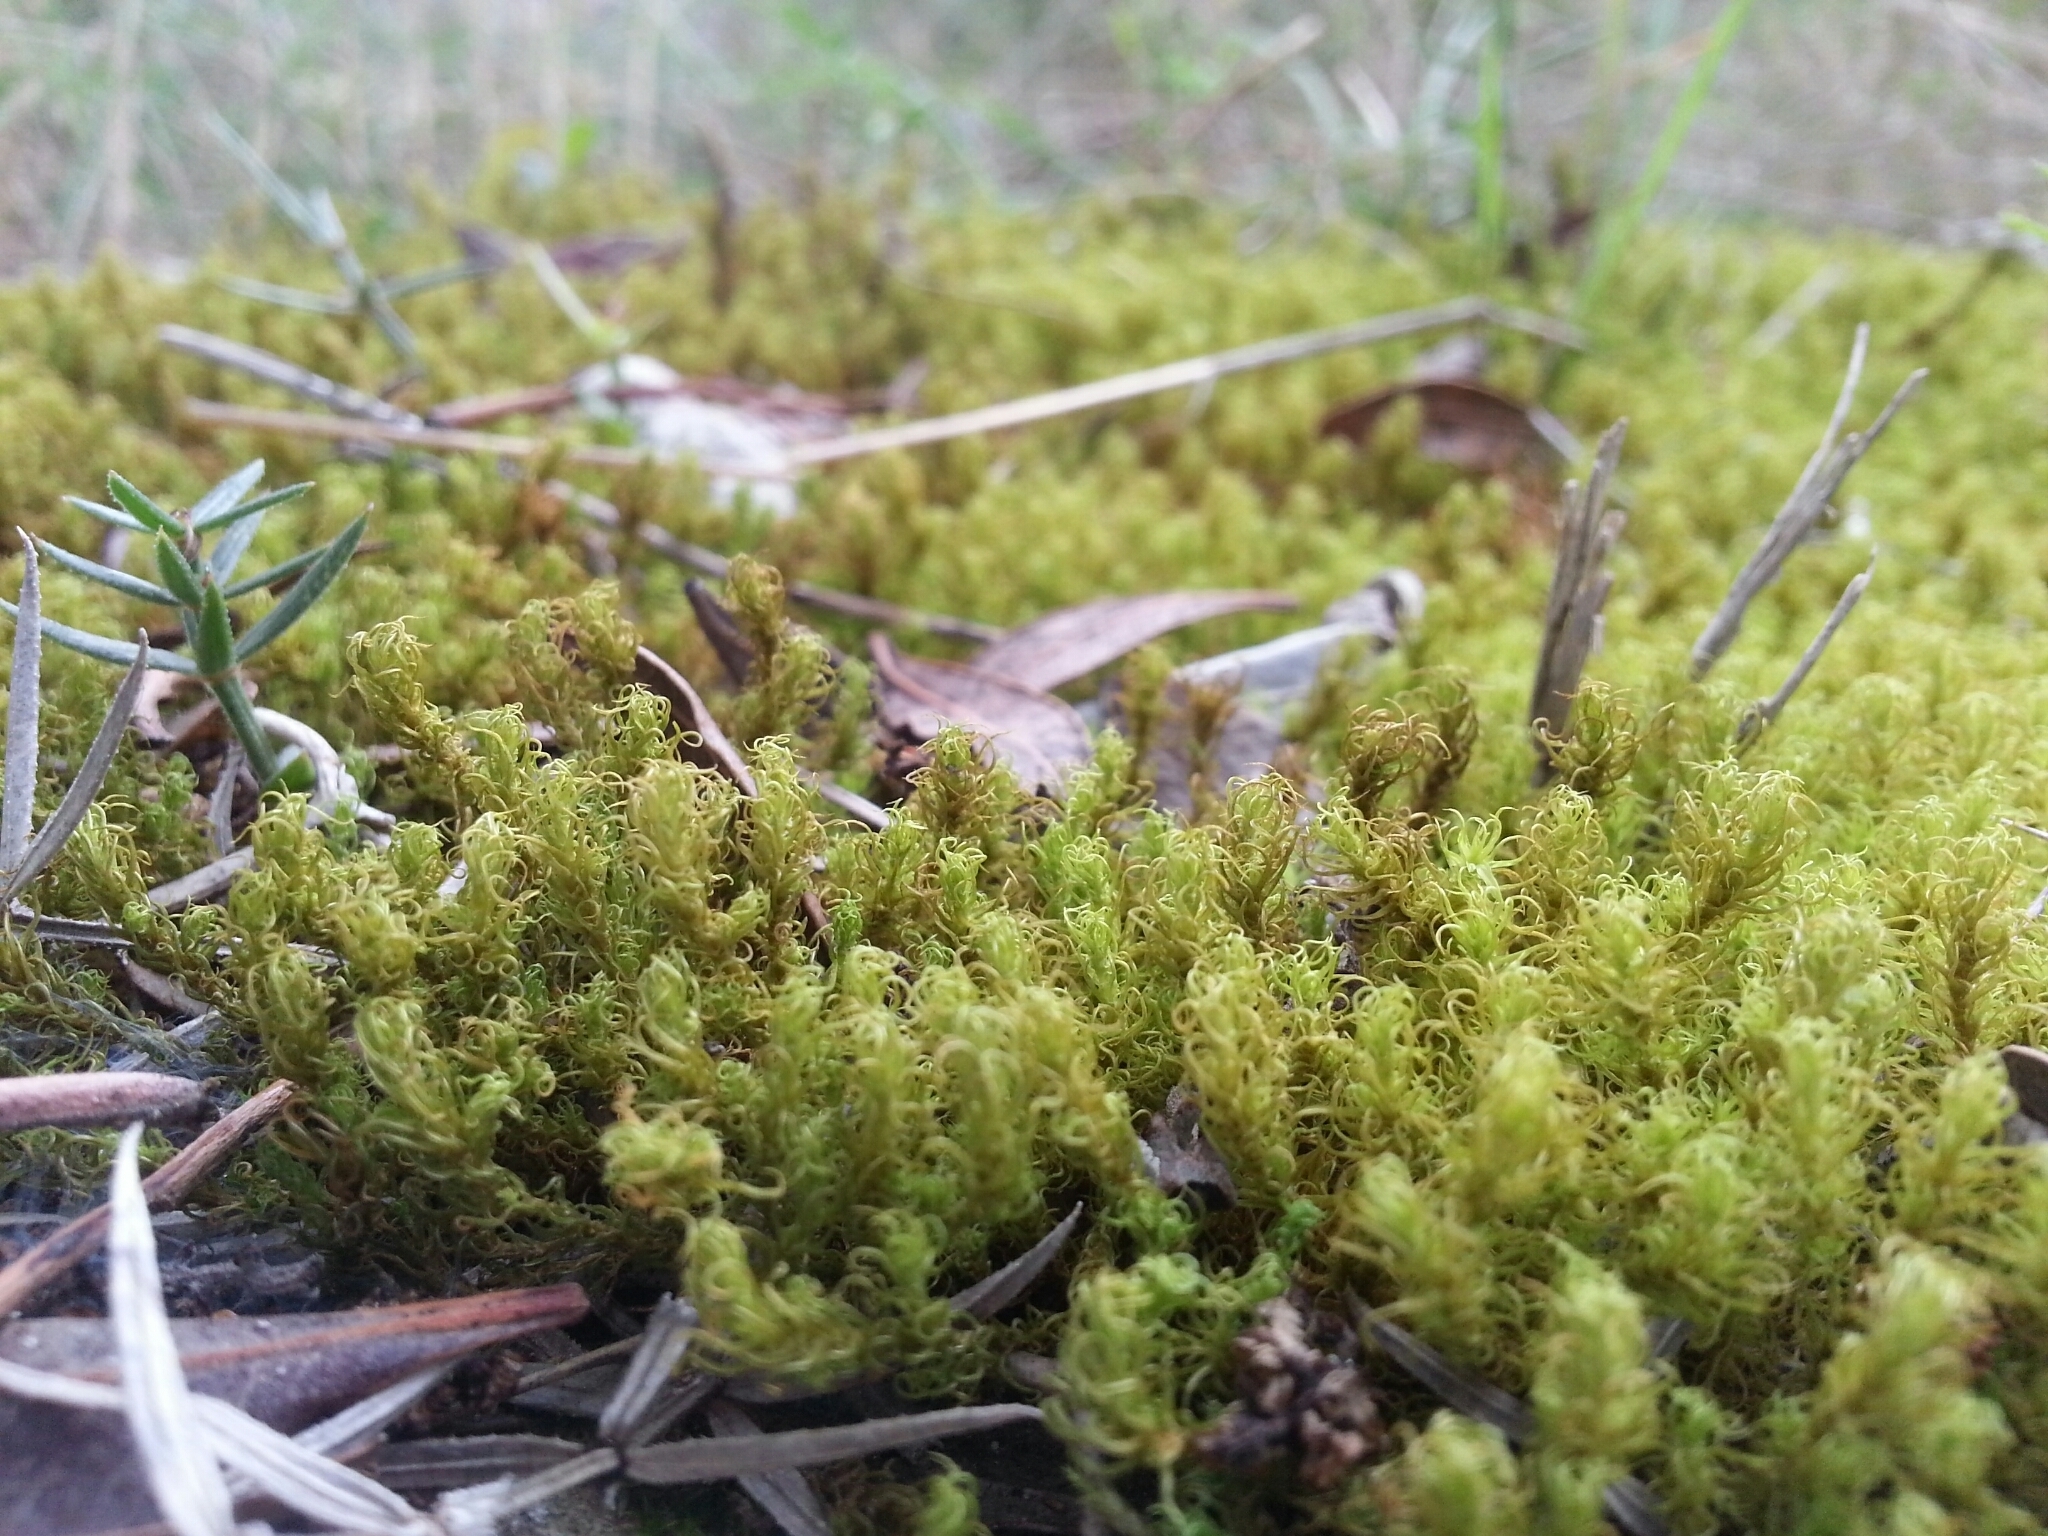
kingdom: Plantae
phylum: Bryophyta
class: Bryopsida
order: Pottiales
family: Pottiaceae
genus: Pleurochaete
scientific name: Pleurochaete squarrosa
